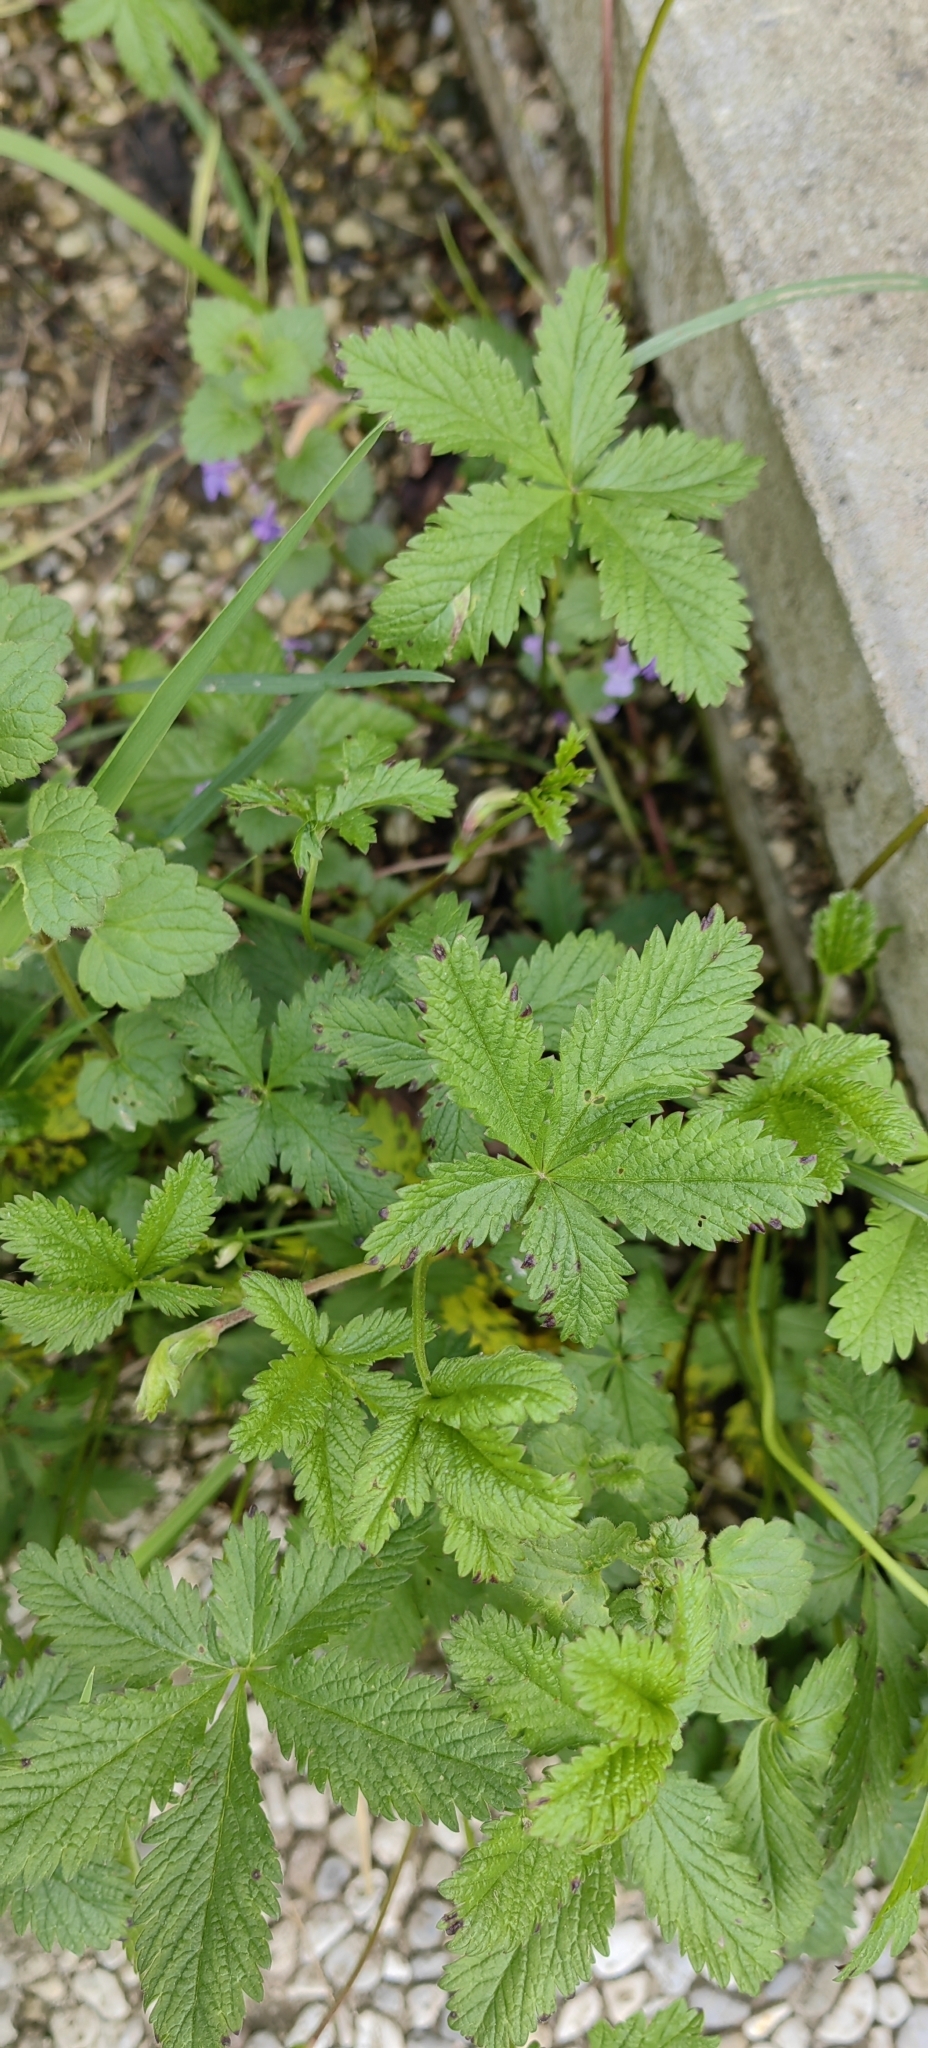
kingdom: Plantae
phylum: Tracheophyta
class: Magnoliopsida
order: Rosales
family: Rosaceae
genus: Potentilla
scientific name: Potentilla reptans
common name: Creeping cinquefoil
